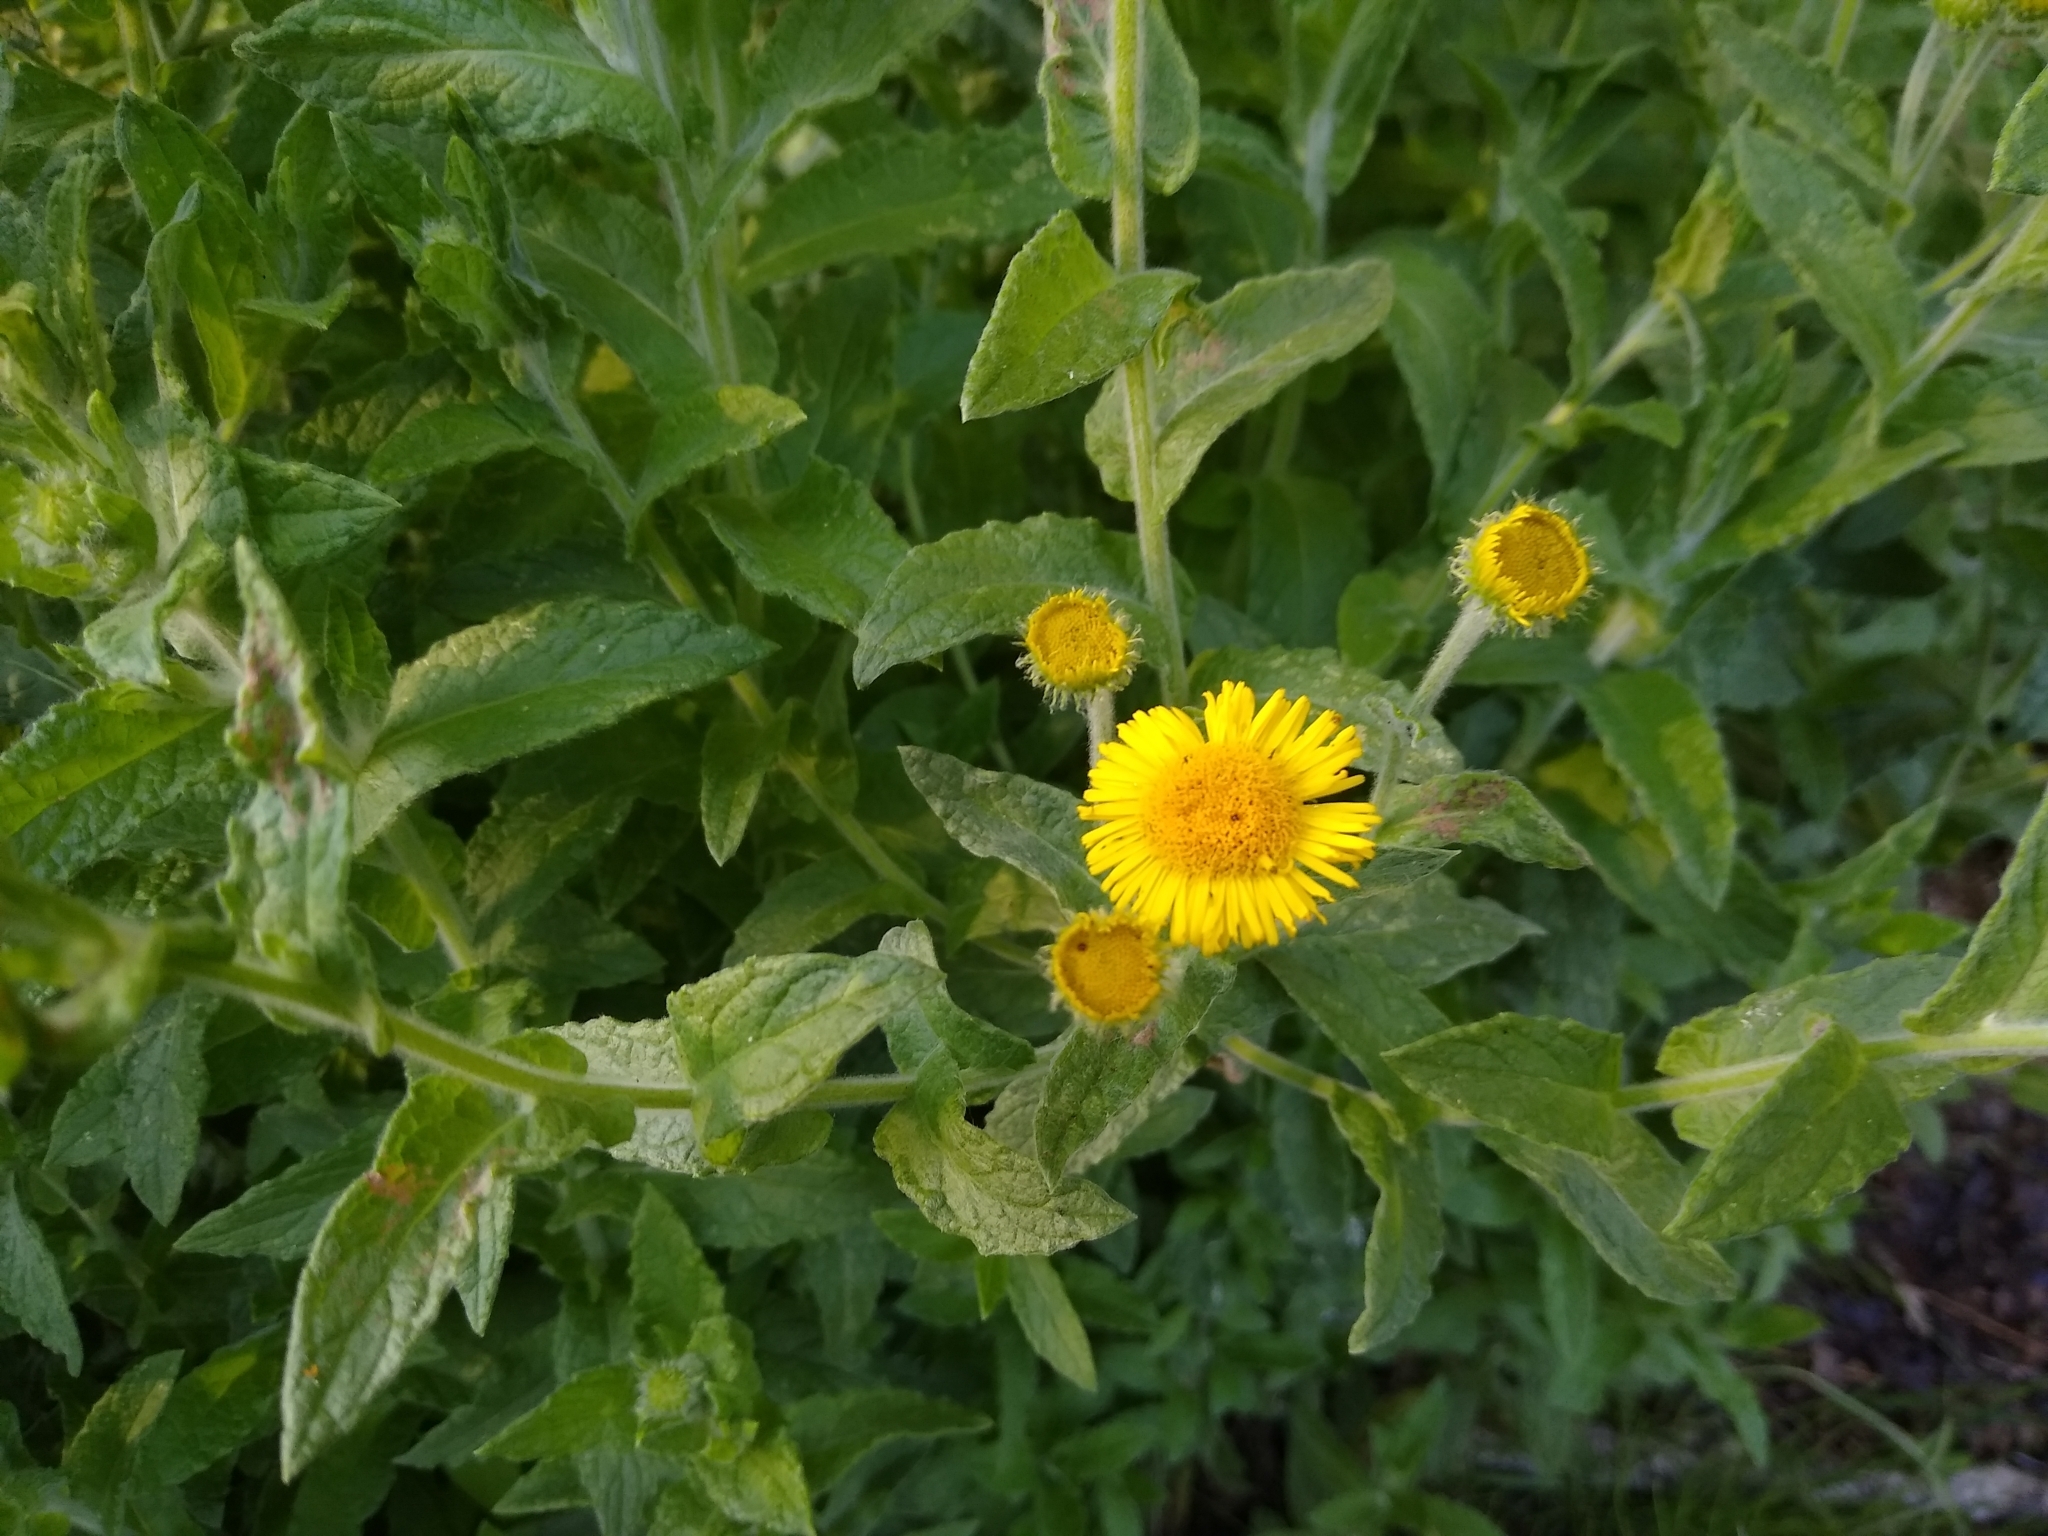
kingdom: Plantae
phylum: Tracheophyta
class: Magnoliopsida
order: Asterales
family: Asteraceae
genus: Pulicaria
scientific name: Pulicaria dysenterica
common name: Common fleabane
